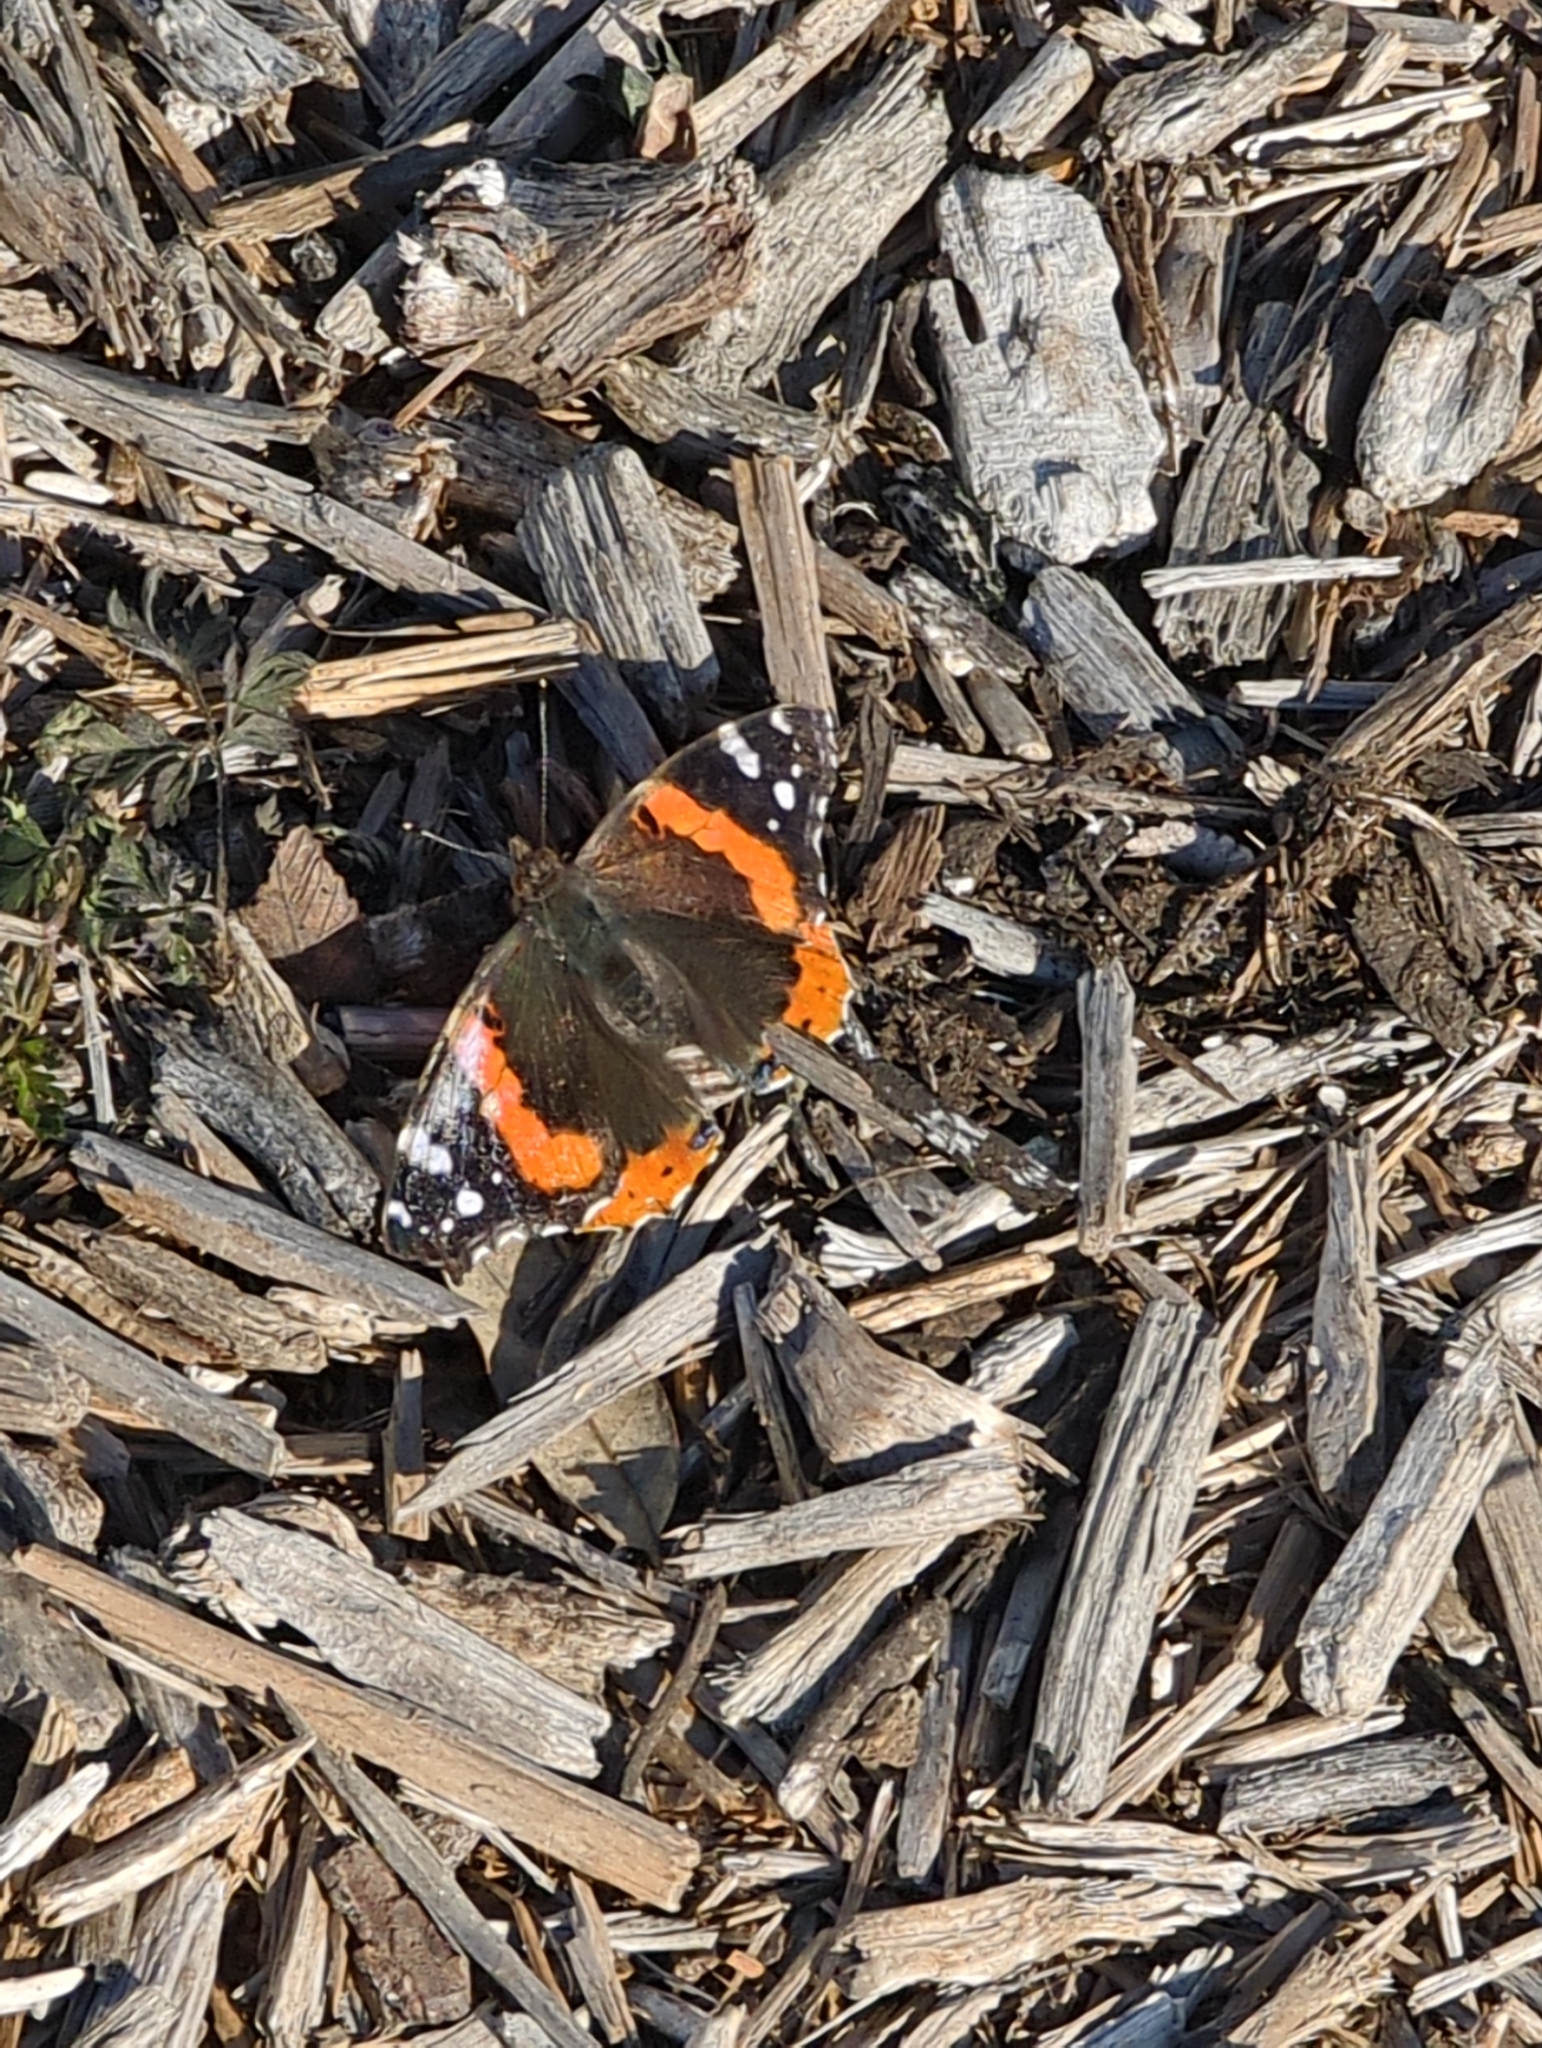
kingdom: Animalia
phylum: Arthropoda
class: Insecta
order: Lepidoptera
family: Nymphalidae
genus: Vanessa
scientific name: Vanessa atalanta
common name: Red admiral
